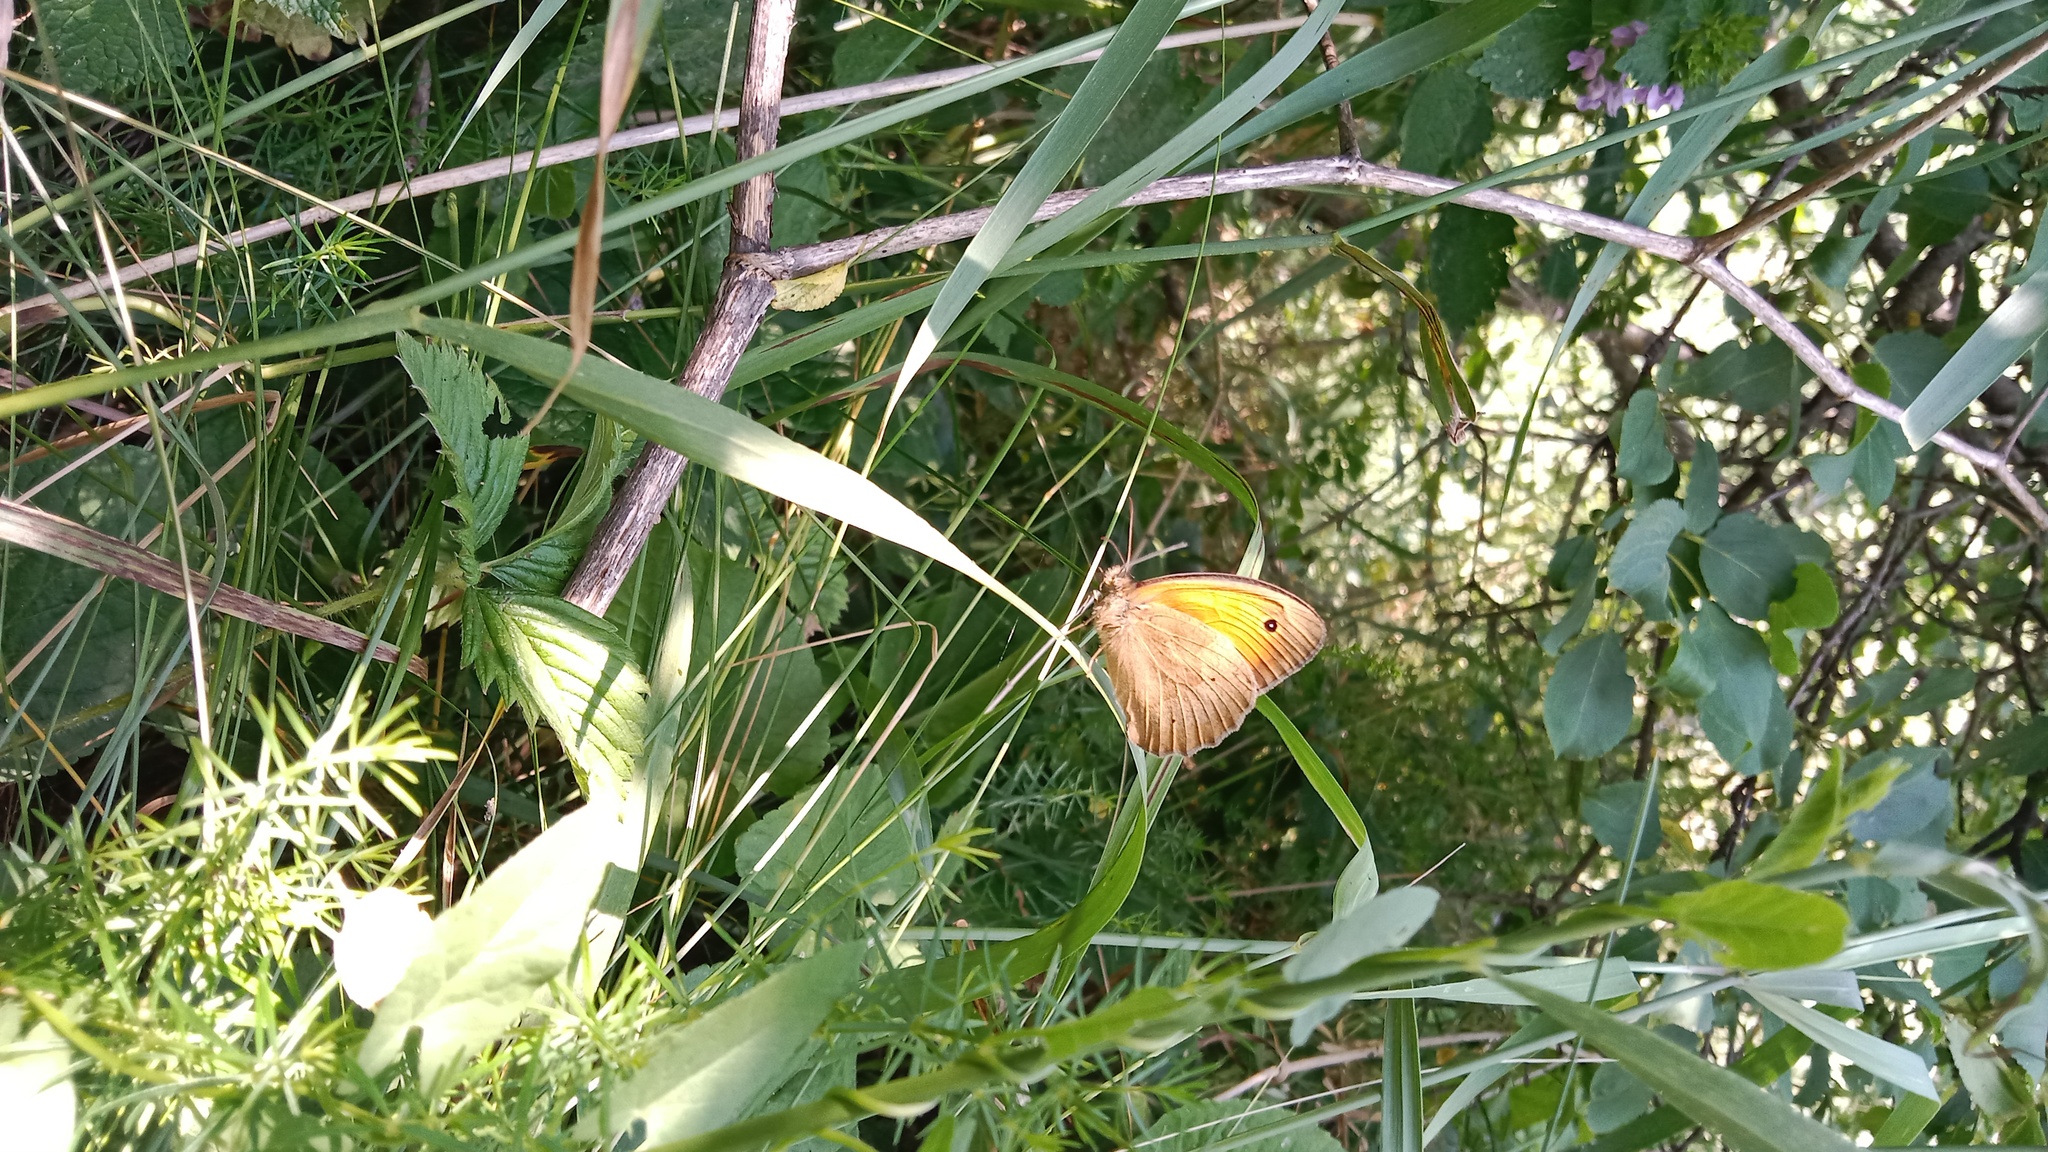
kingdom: Animalia
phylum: Arthropoda
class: Insecta
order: Lepidoptera
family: Nymphalidae
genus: Maniola
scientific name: Maniola jurtina
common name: Meadow brown
